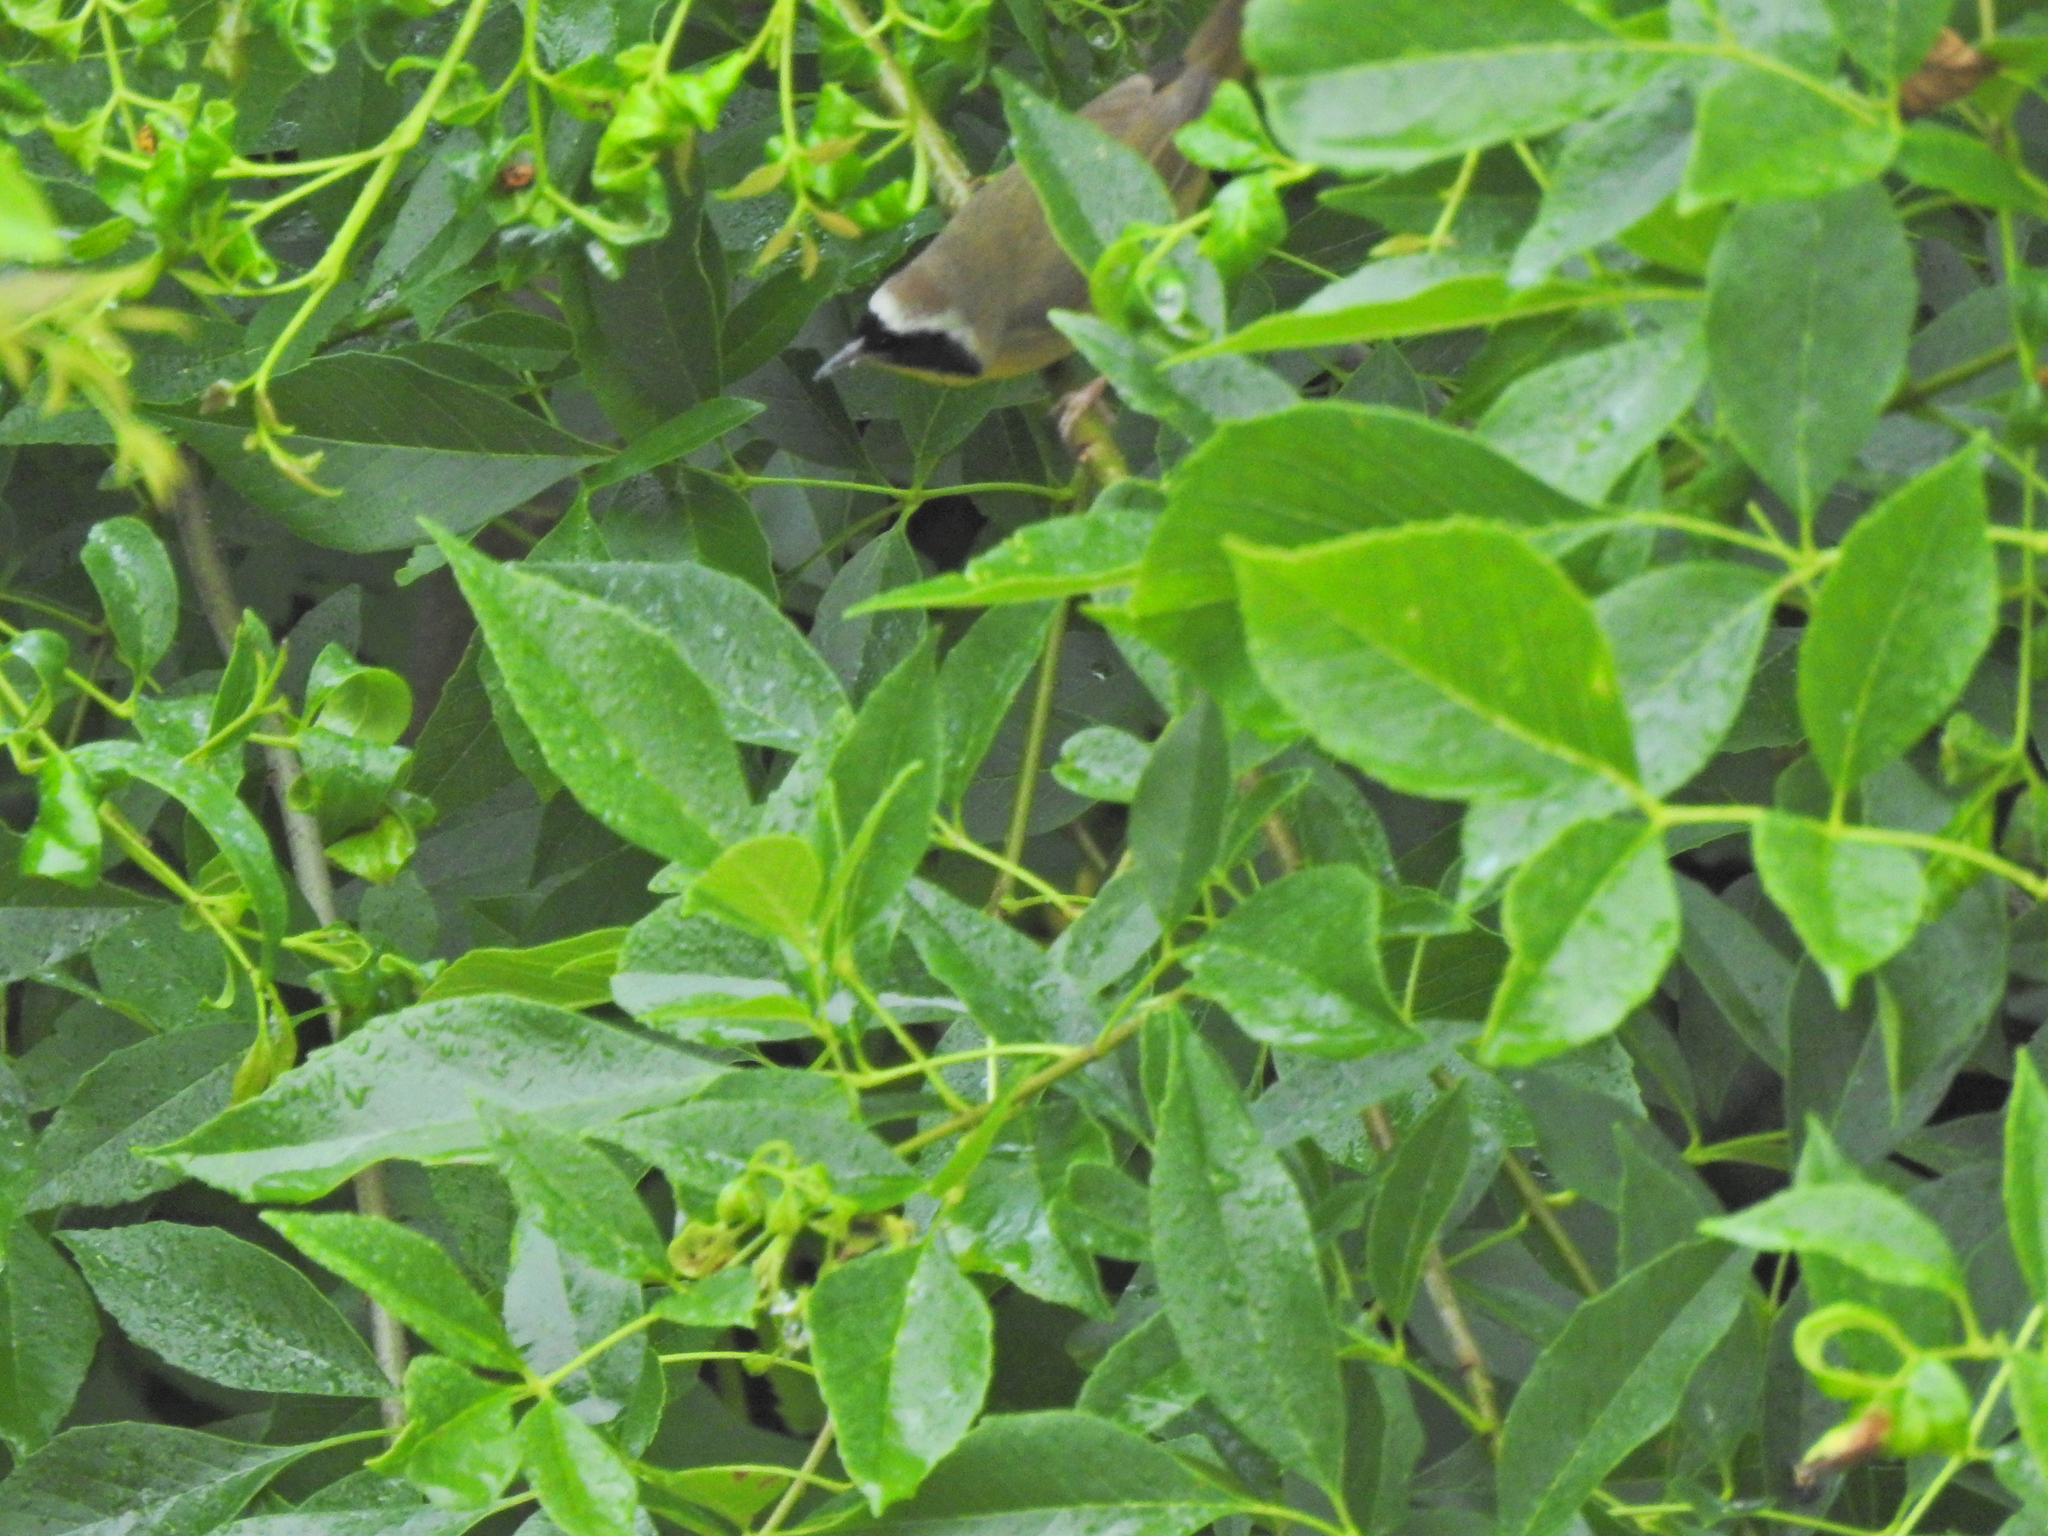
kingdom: Animalia
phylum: Chordata
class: Aves
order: Passeriformes
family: Parulidae
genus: Geothlypis
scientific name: Geothlypis trichas
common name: Common yellowthroat
